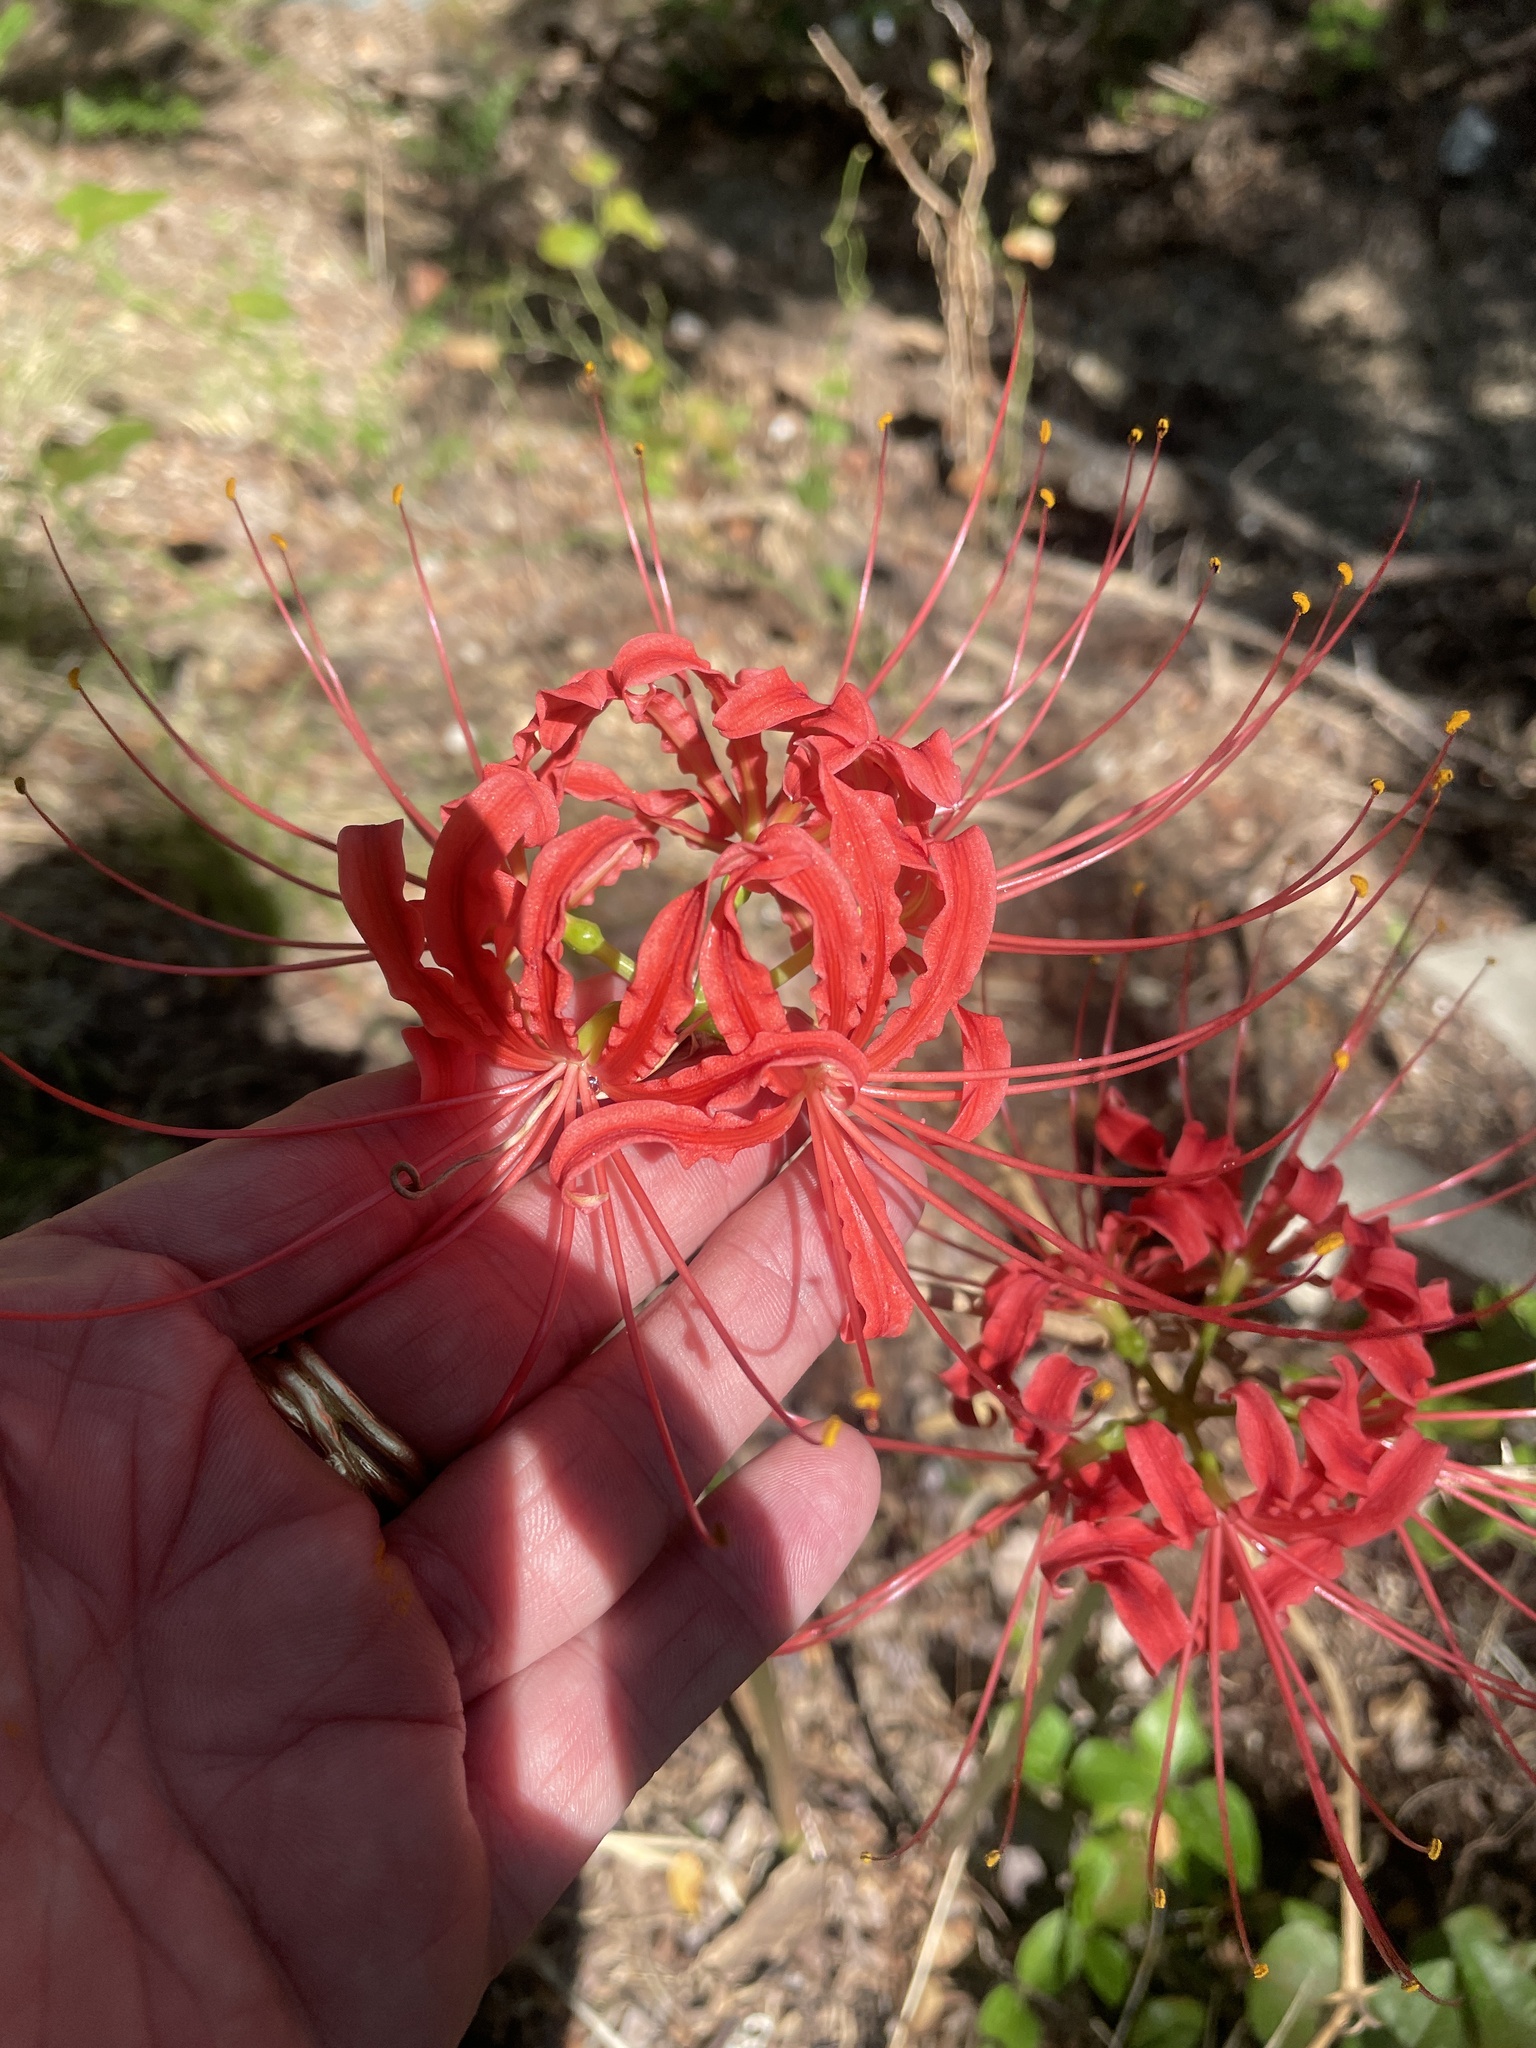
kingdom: Plantae
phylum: Tracheophyta
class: Liliopsida
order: Asparagales
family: Amaryllidaceae
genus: Lycoris
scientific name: Lycoris radiata
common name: Red spider lily
